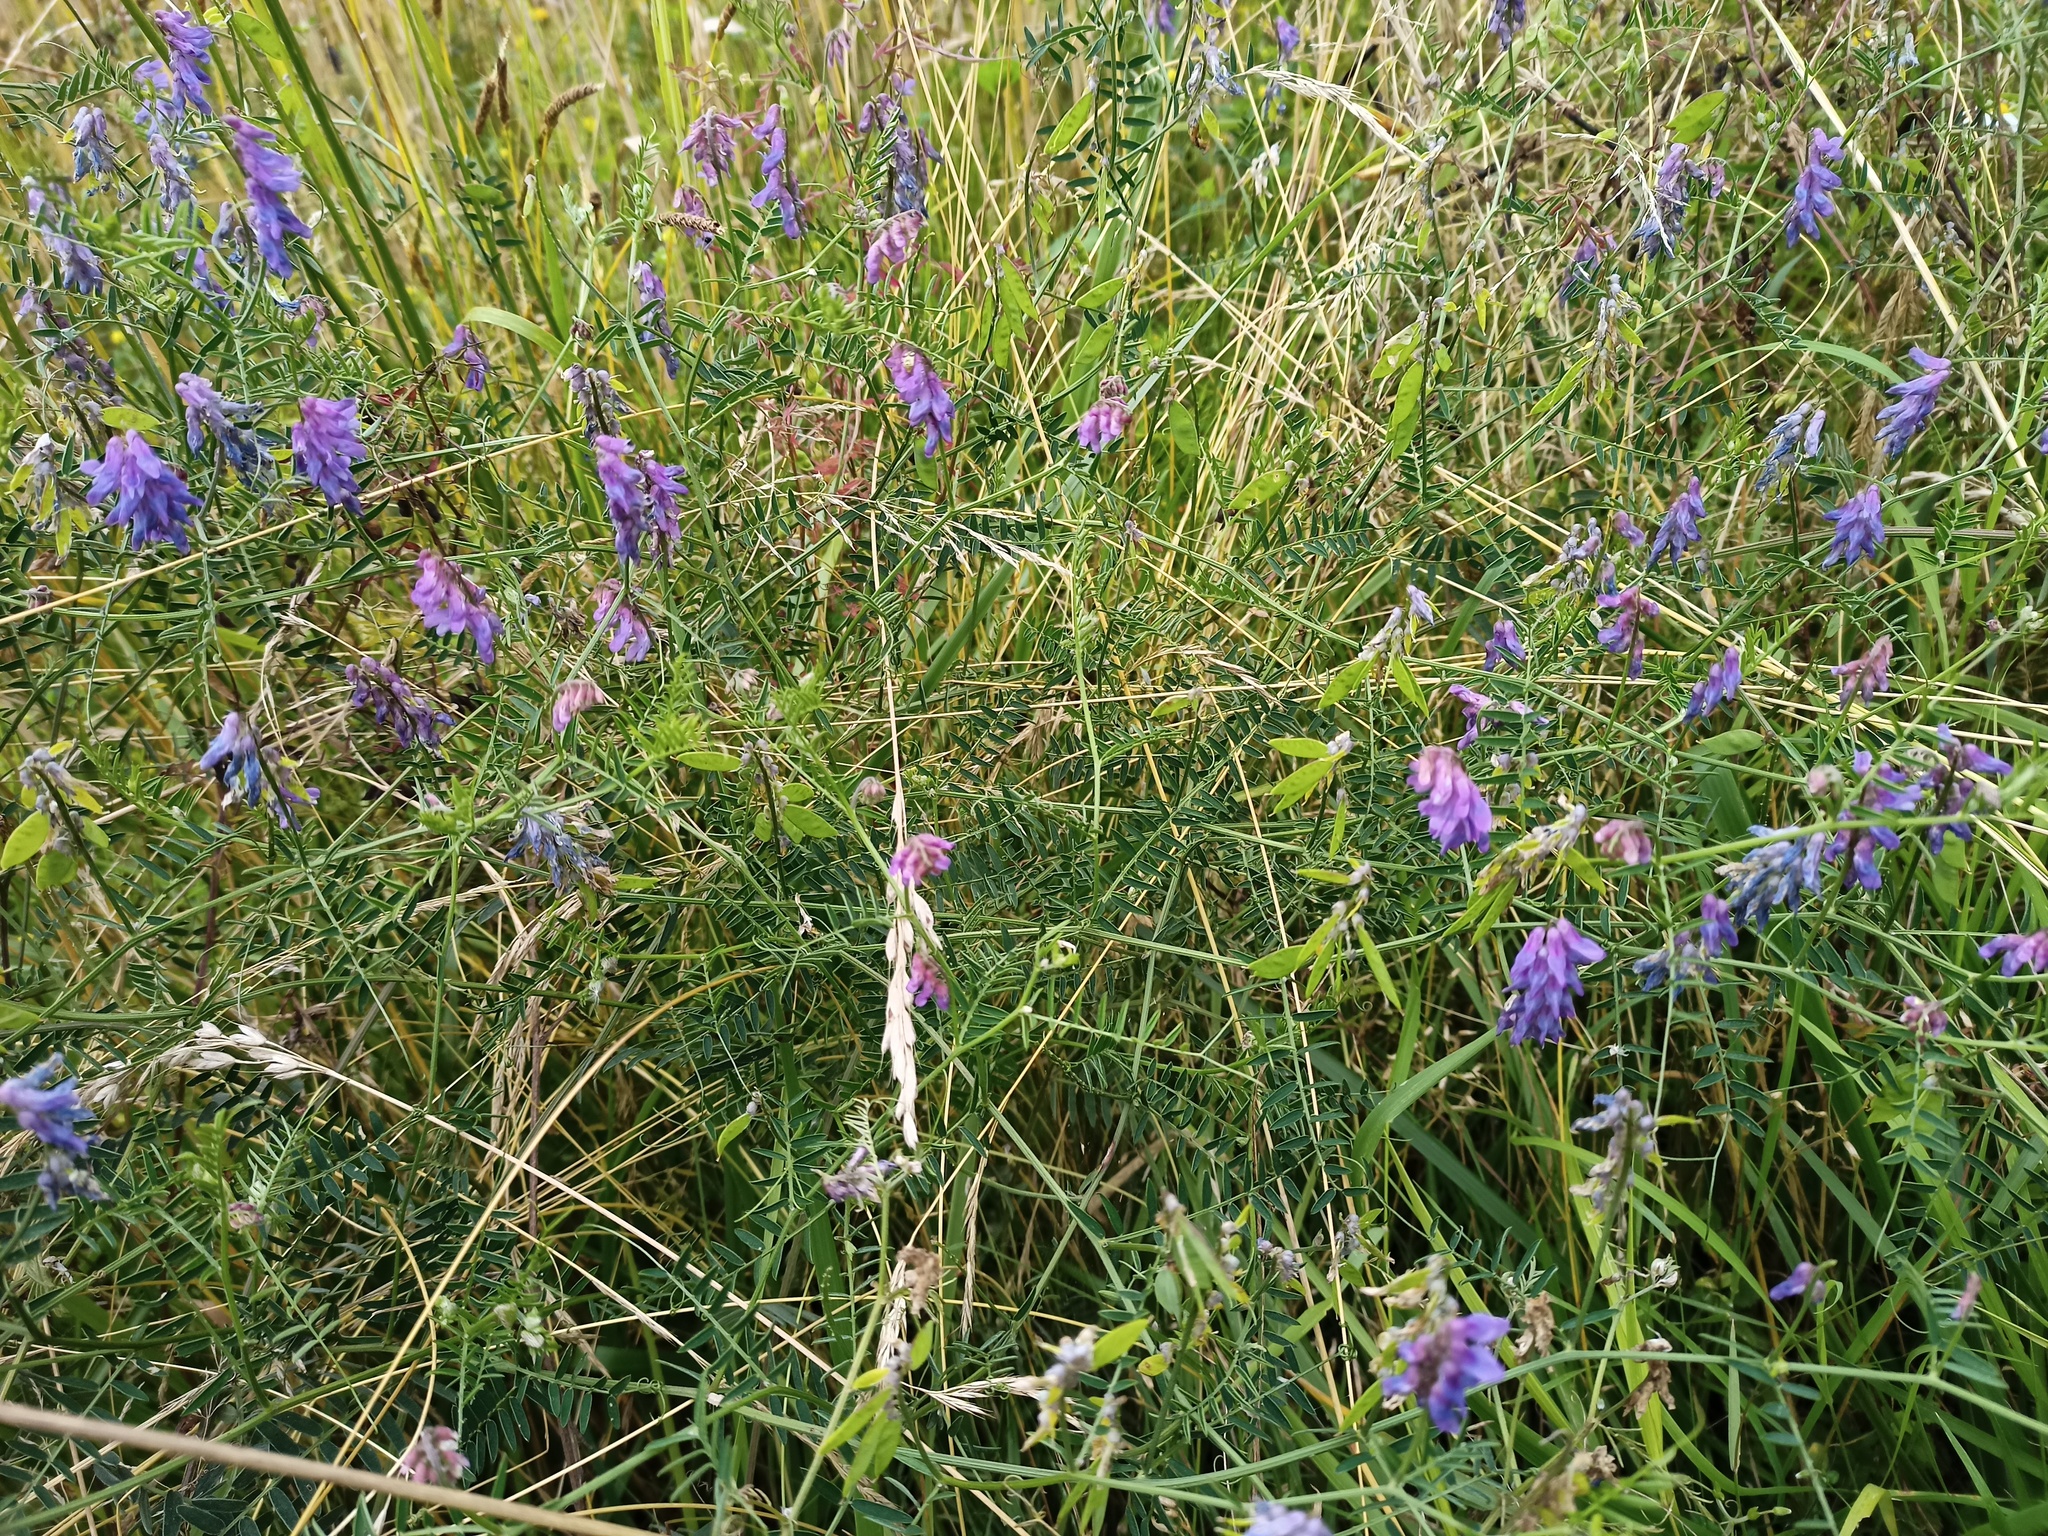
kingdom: Plantae
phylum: Tracheophyta
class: Magnoliopsida
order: Fabales
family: Fabaceae
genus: Vicia
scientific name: Vicia cracca
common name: Bird vetch
